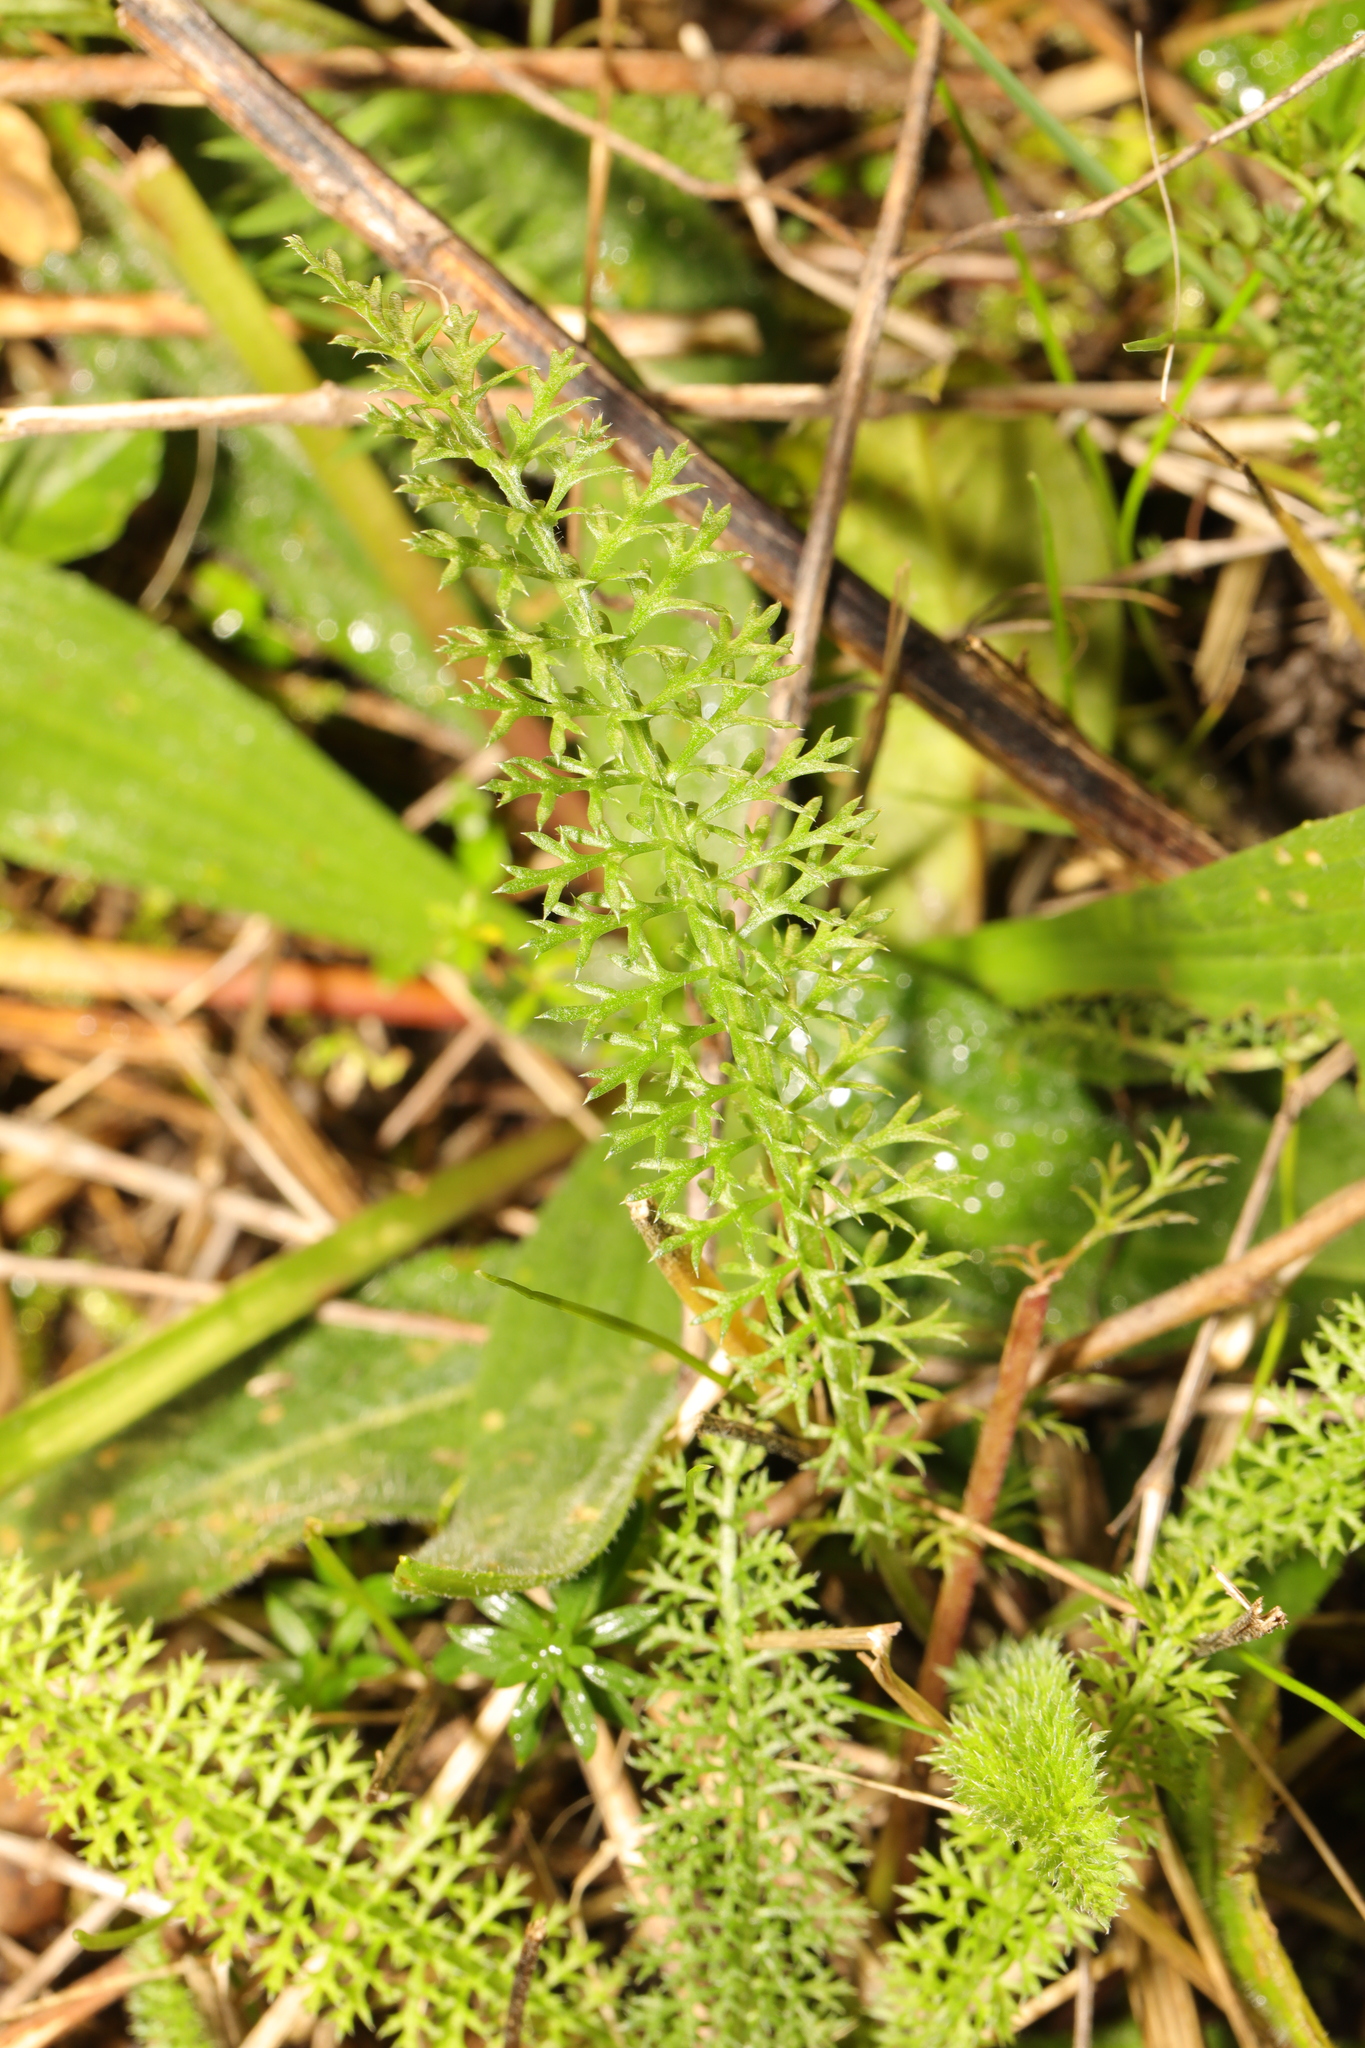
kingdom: Plantae
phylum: Tracheophyta
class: Magnoliopsida
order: Asterales
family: Asteraceae
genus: Achillea
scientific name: Achillea millefolium
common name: Yarrow
